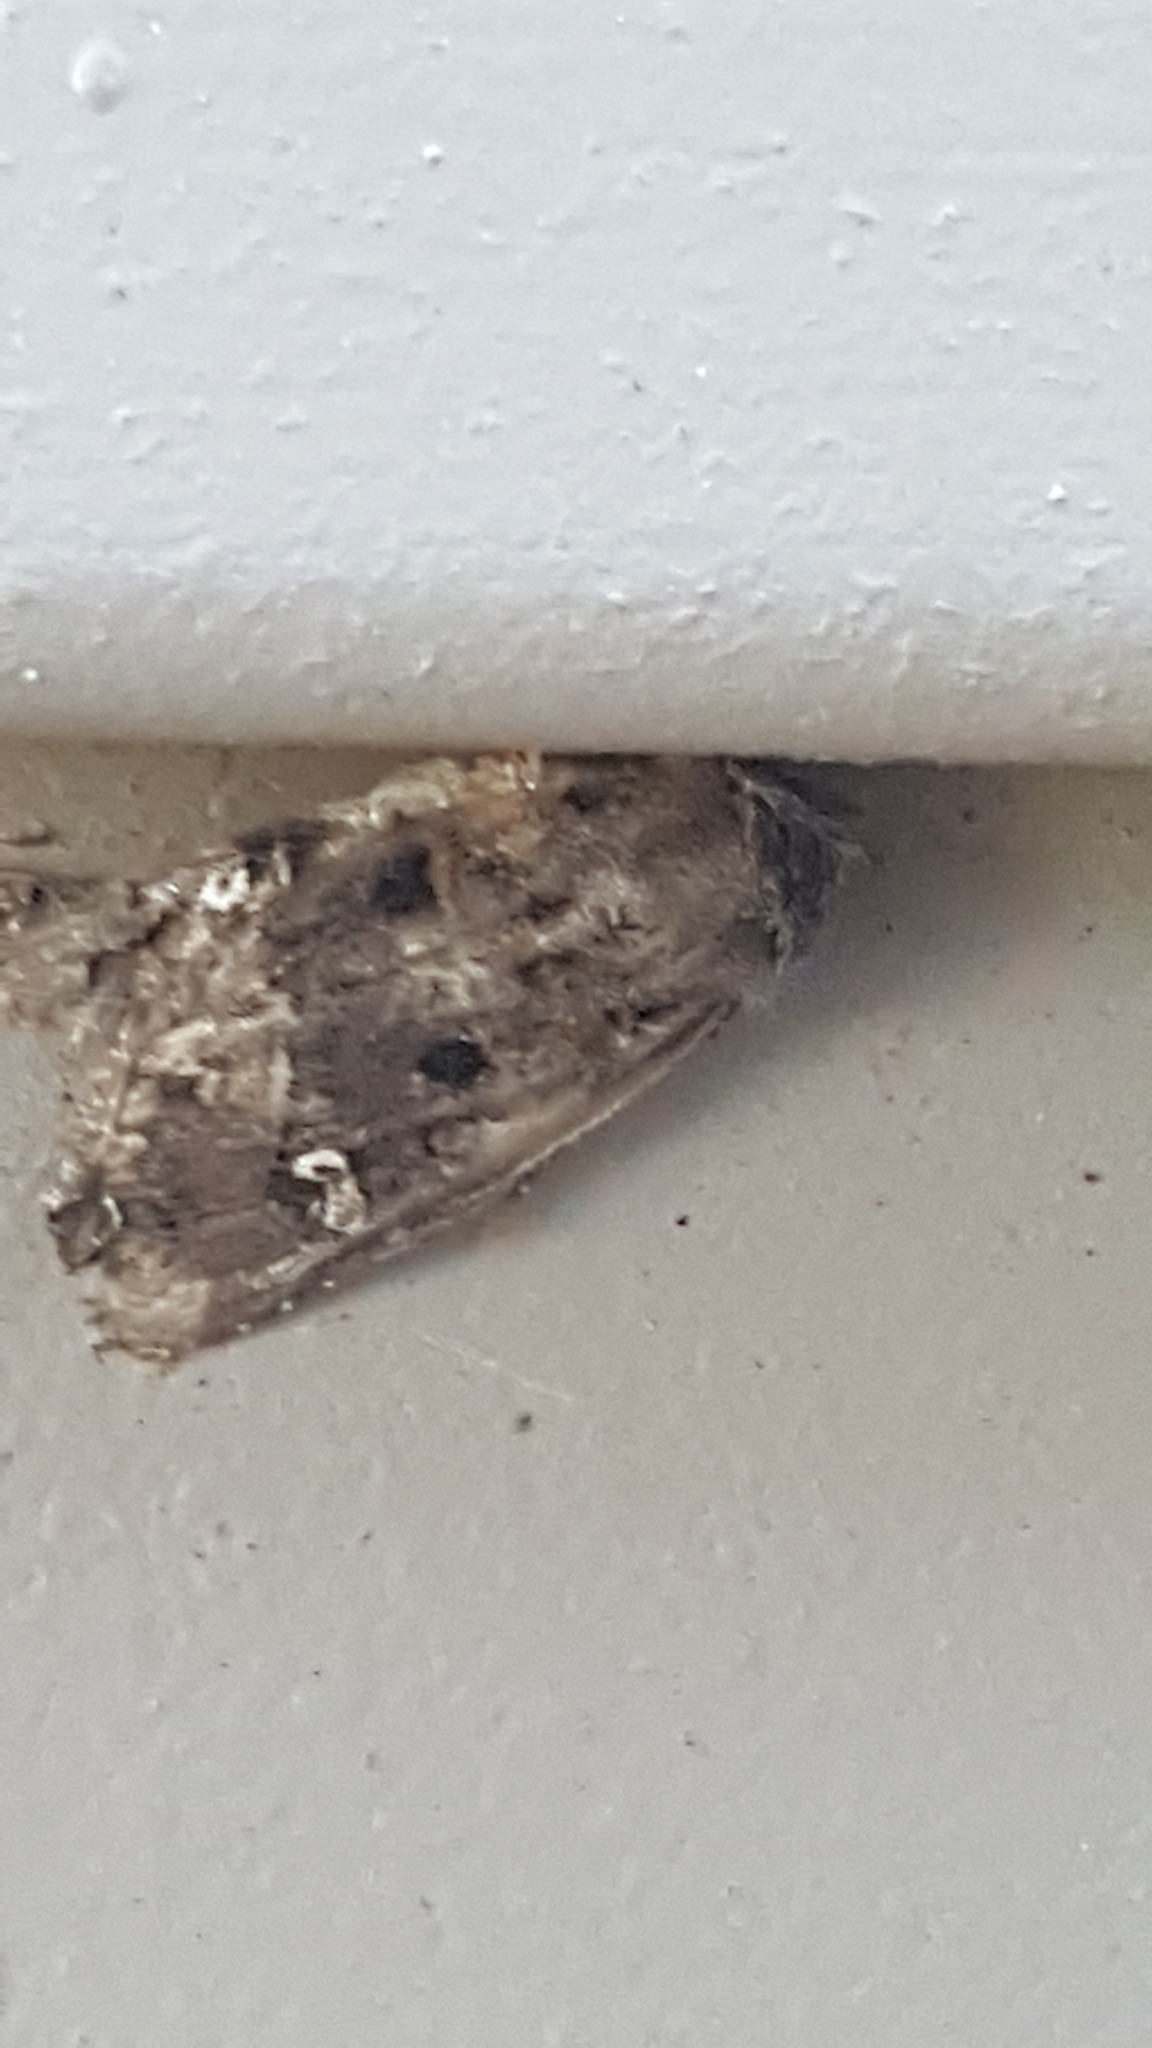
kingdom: Animalia
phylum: Arthropoda
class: Insecta
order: Lepidoptera
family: Noctuidae
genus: Lacinipolia
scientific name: Lacinipolia renigera
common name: Kidney-spotted minor
